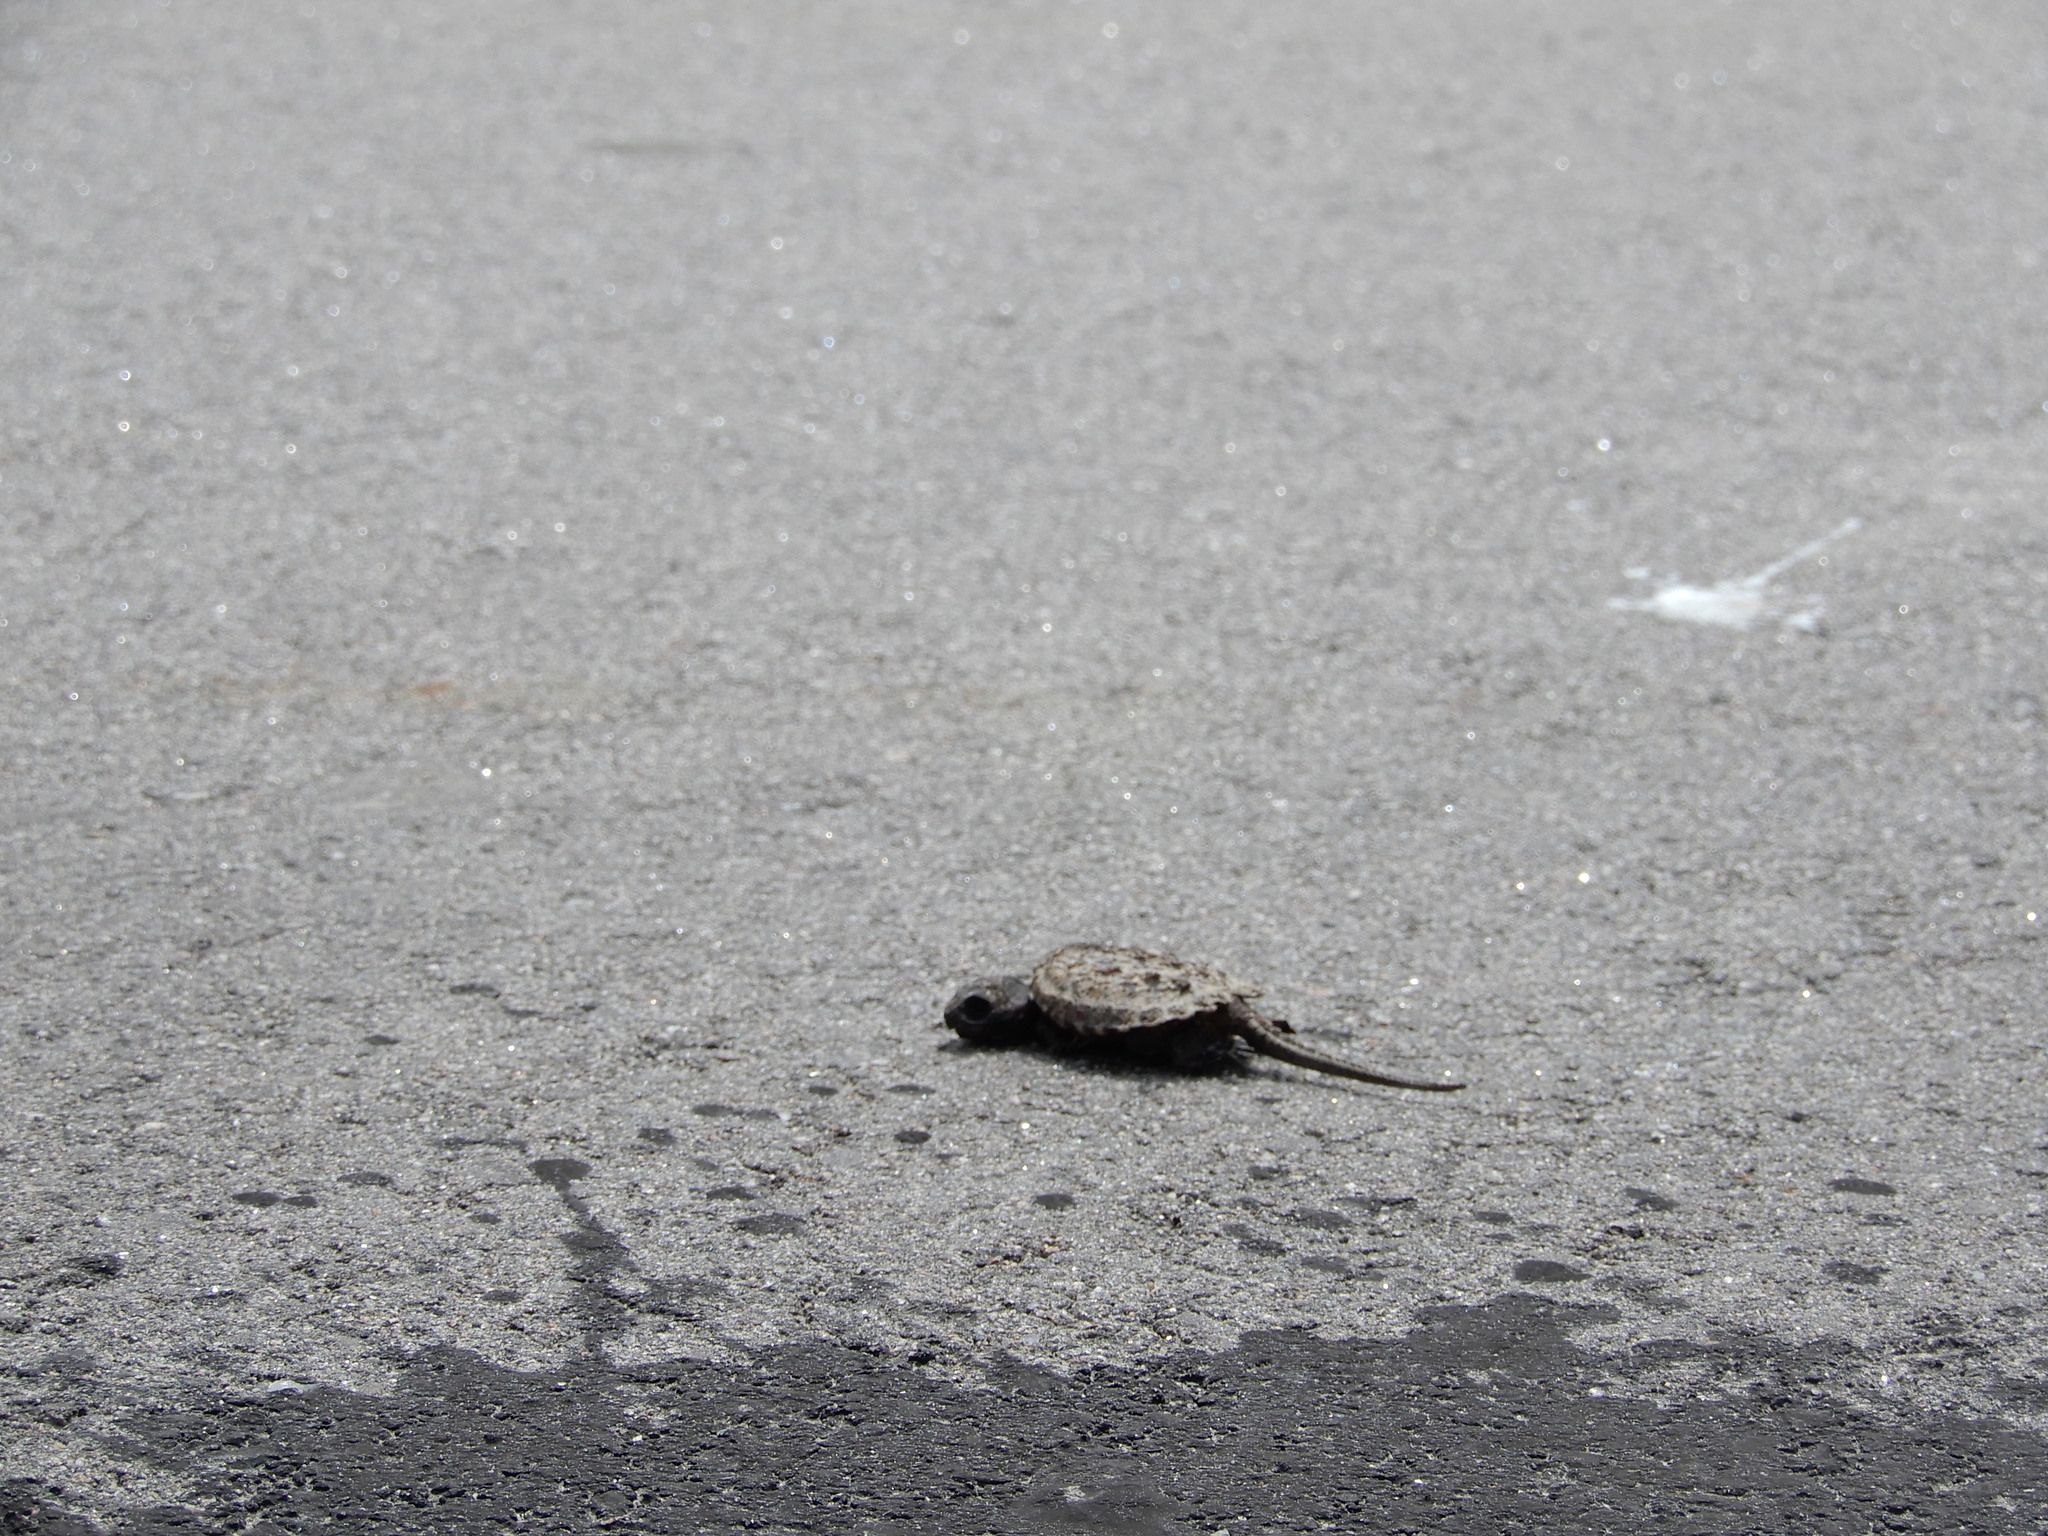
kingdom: Animalia
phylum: Chordata
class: Testudines
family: Chelydridae
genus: Chelydra
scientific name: Chelydra serpentina
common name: Common snapping turtle
